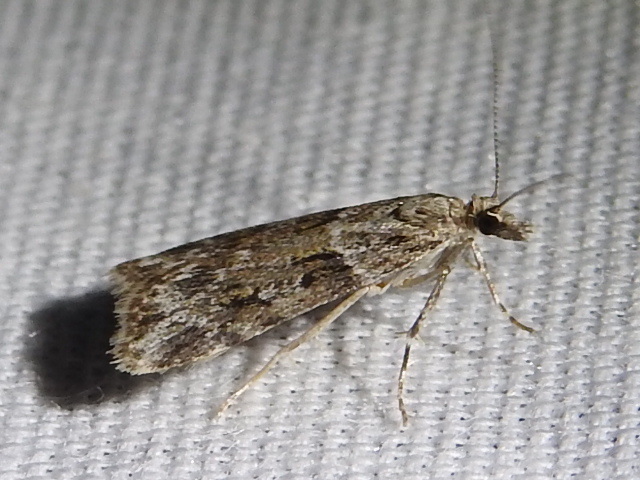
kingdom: Animalia
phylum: Arthropoda
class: Insecta
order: Lepidoptera
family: Crambidae
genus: Scoparia
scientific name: Scoparia biplagialis
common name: Double-striped scoparia moth
